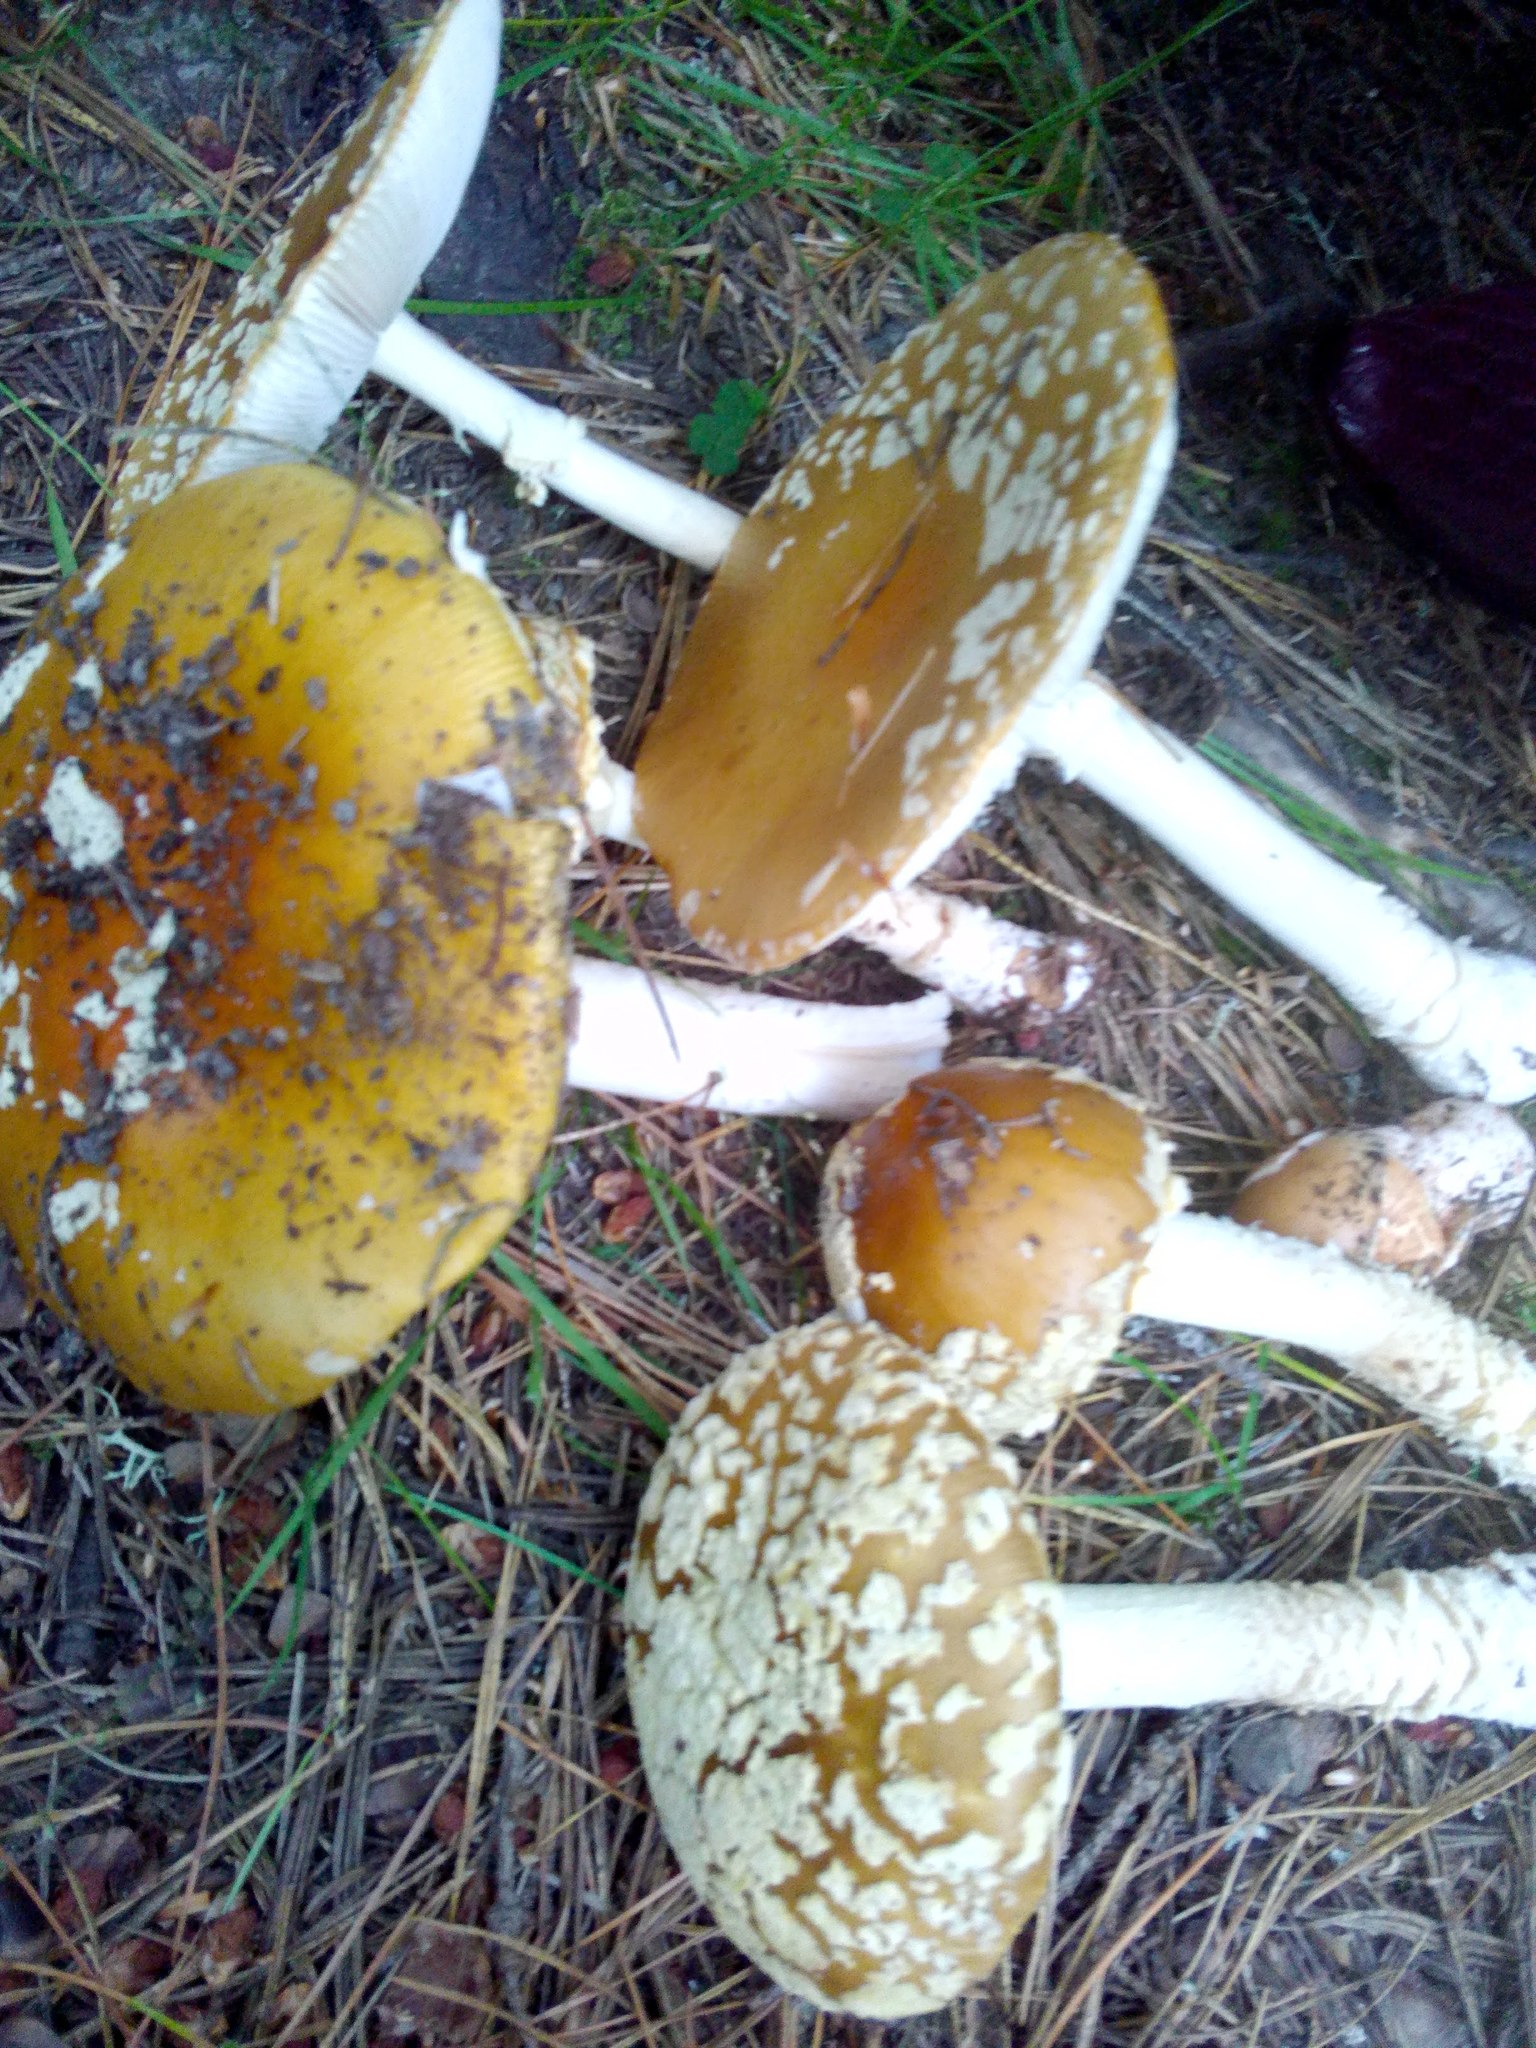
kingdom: Fungi
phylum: Basidiomycota
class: Agaricomycetes
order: Agaricales
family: Amanitaceae
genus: Amanita
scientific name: Amanita regalis
